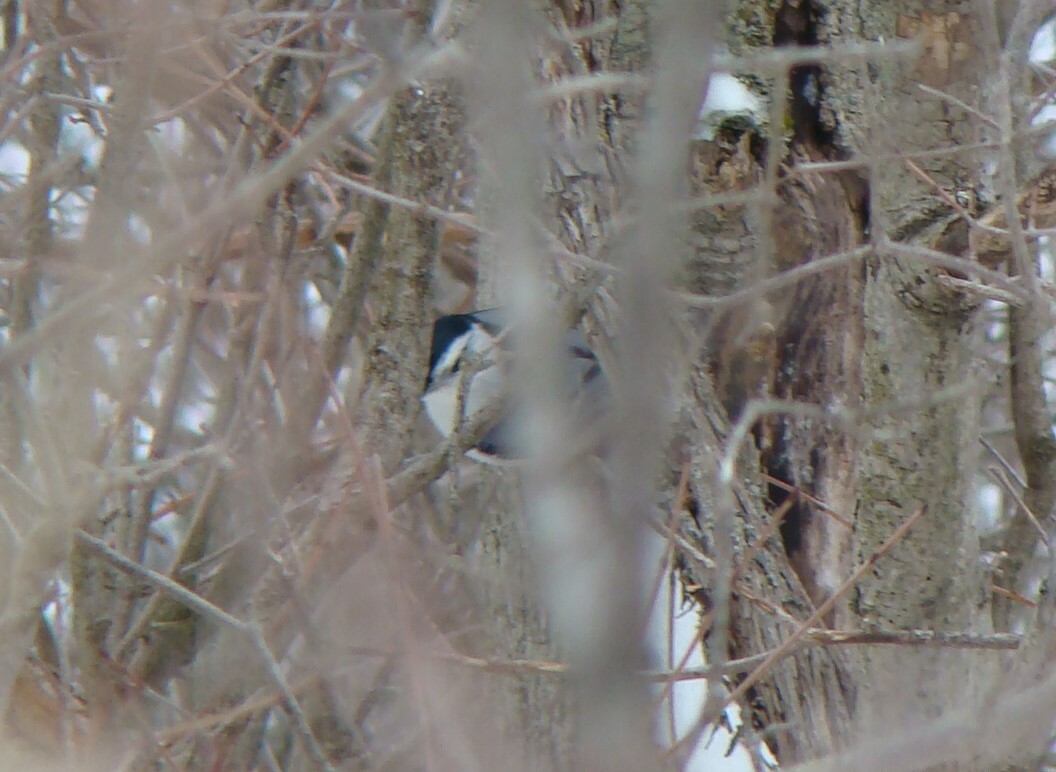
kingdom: Animalia
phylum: Chordata
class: Aves
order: Passeriformes
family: Sittidae
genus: Sitta
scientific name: Sitta carolinensis
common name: White-breasted nuthatch
